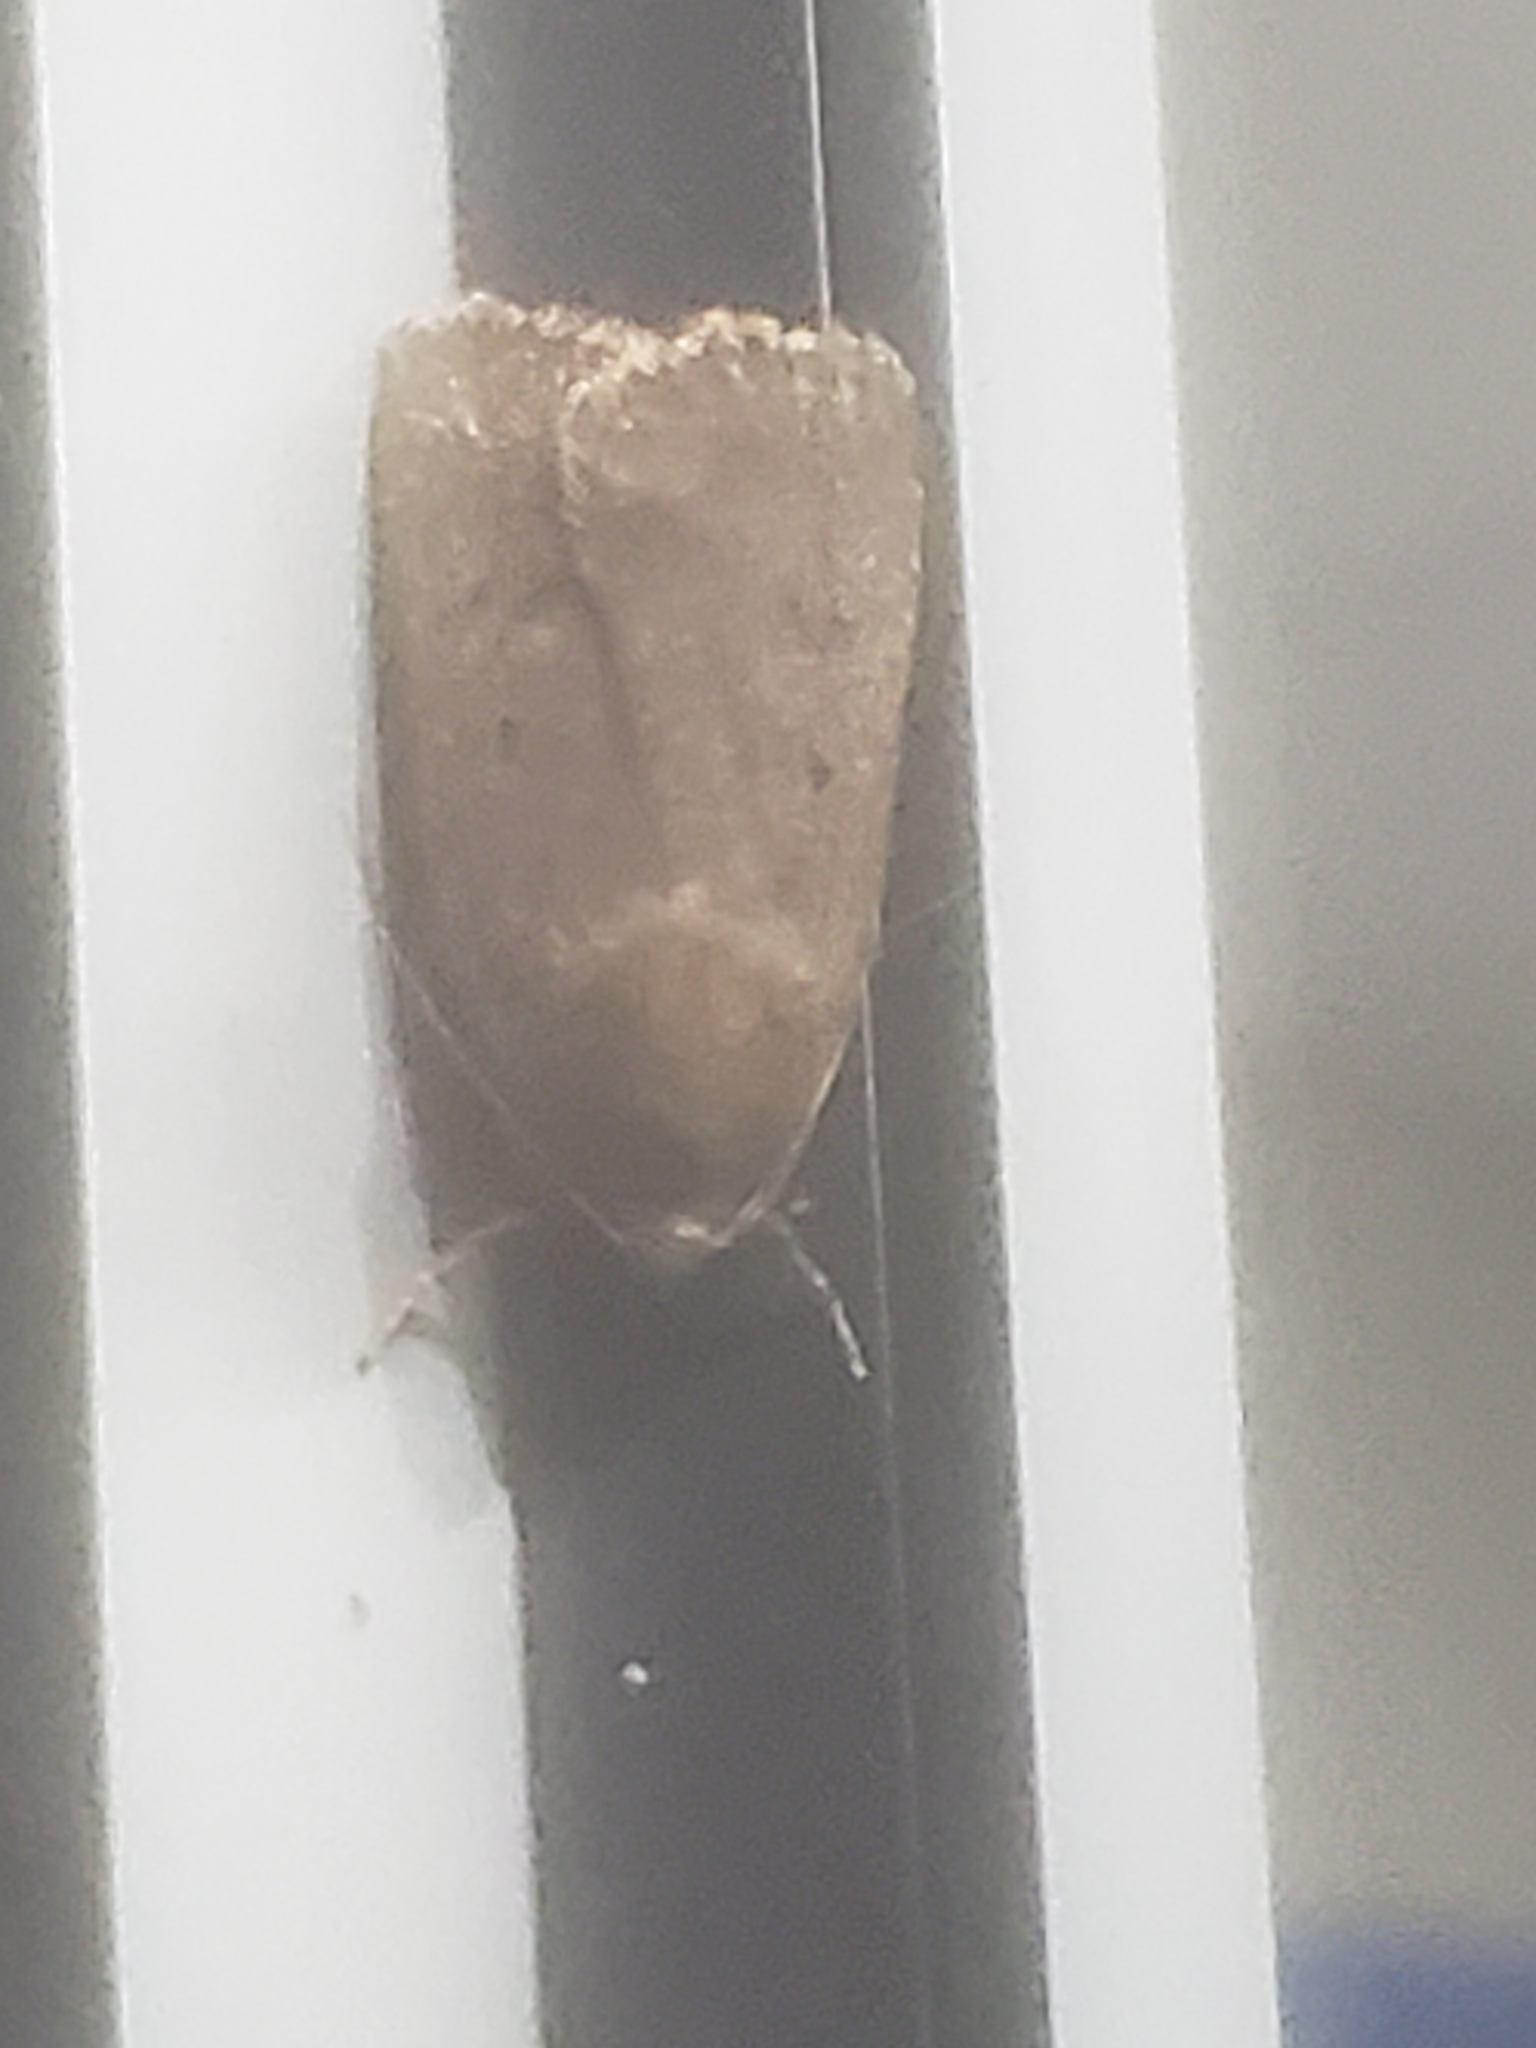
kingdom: Animalia
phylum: Arthropoda
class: Insecta
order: Lepidoptera
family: Noctuidae
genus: Amphipyra
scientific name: Amphipyra tragopoginis
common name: Mouse moth
